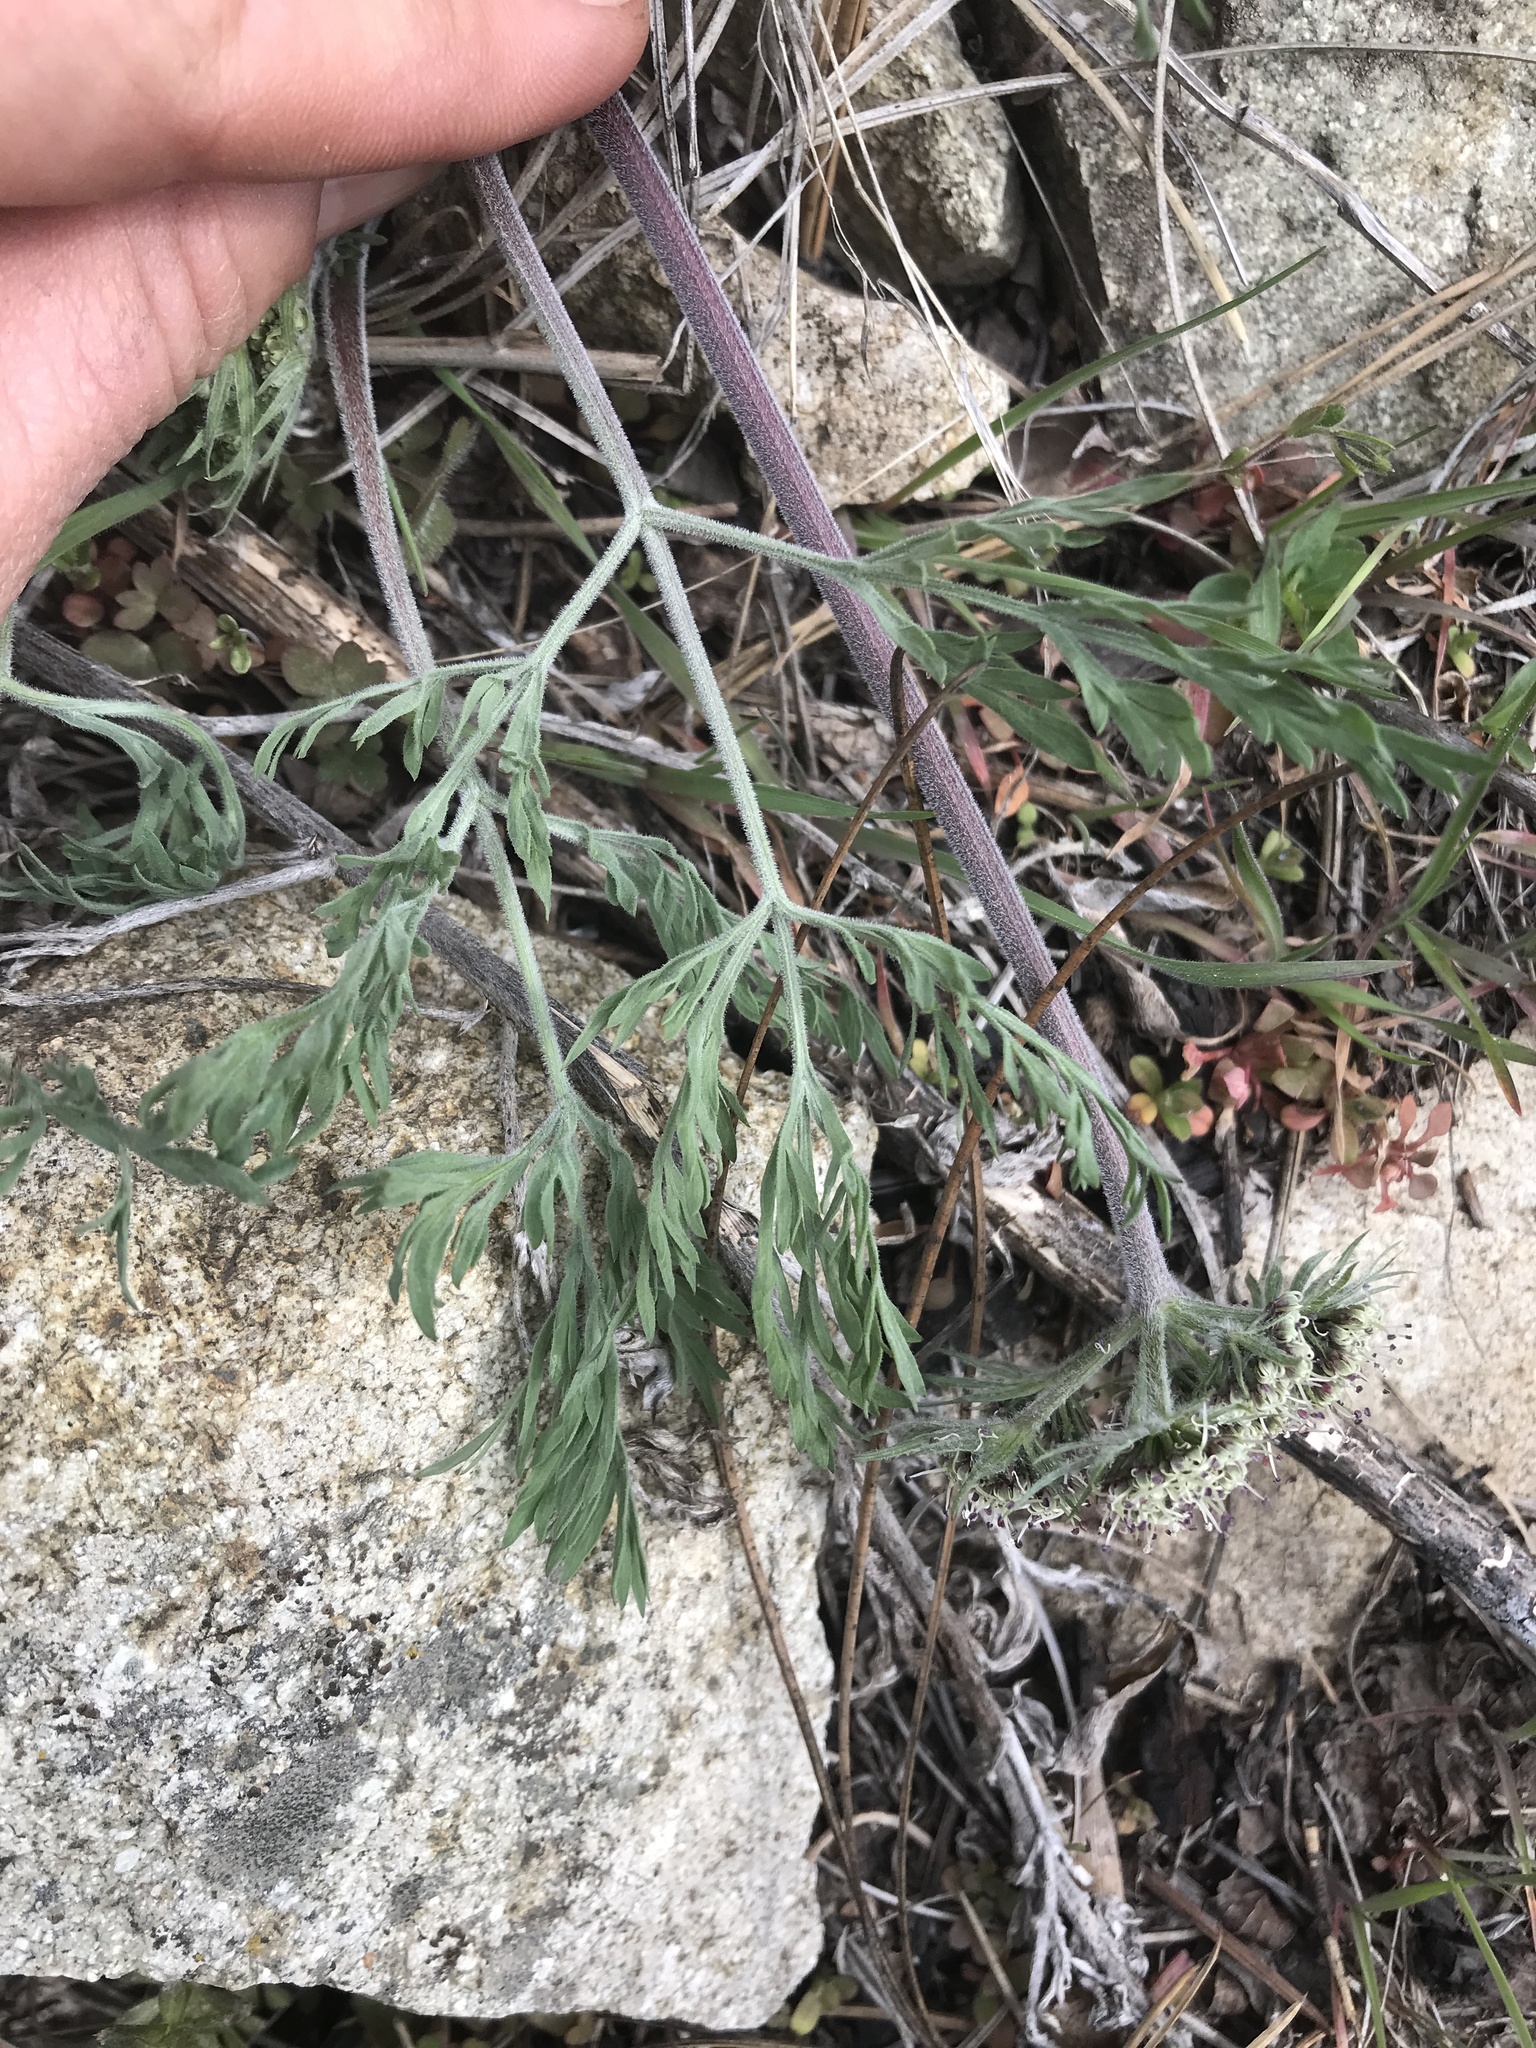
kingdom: Plantae
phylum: Tracheophyta
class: Magnoliopsida
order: Apiales
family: Apiaceae
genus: Lomatium
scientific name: Lomatium macrocarpum
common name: Big-seed biscuitroot
